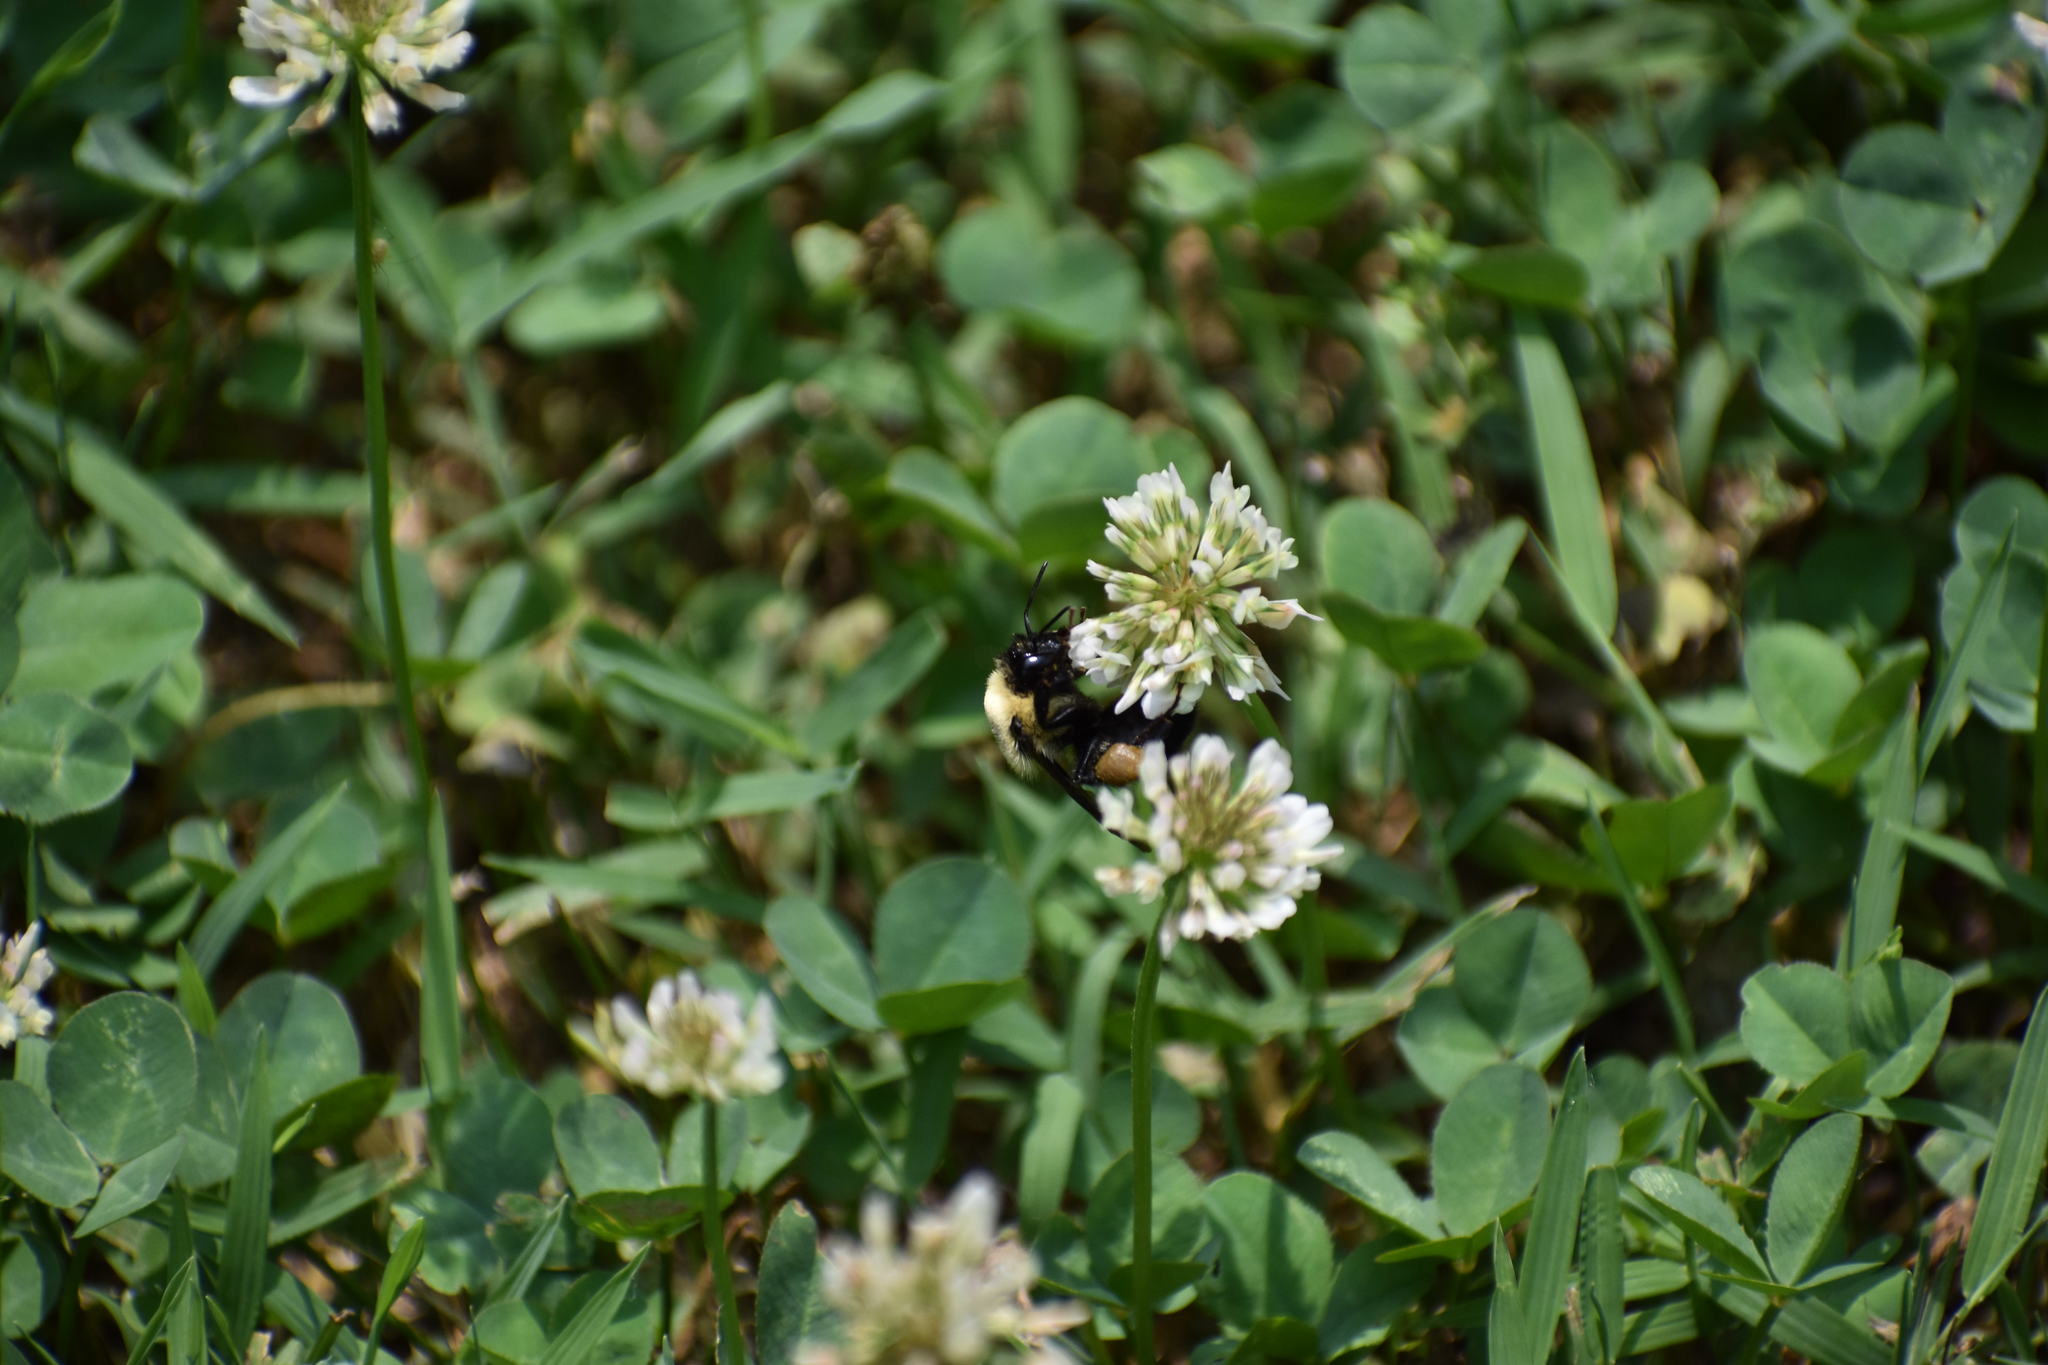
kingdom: Animalia
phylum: Arthropoda
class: Insecta
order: Hymenoptera
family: Apidae
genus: Pyrobombus
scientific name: Pyrobombus
